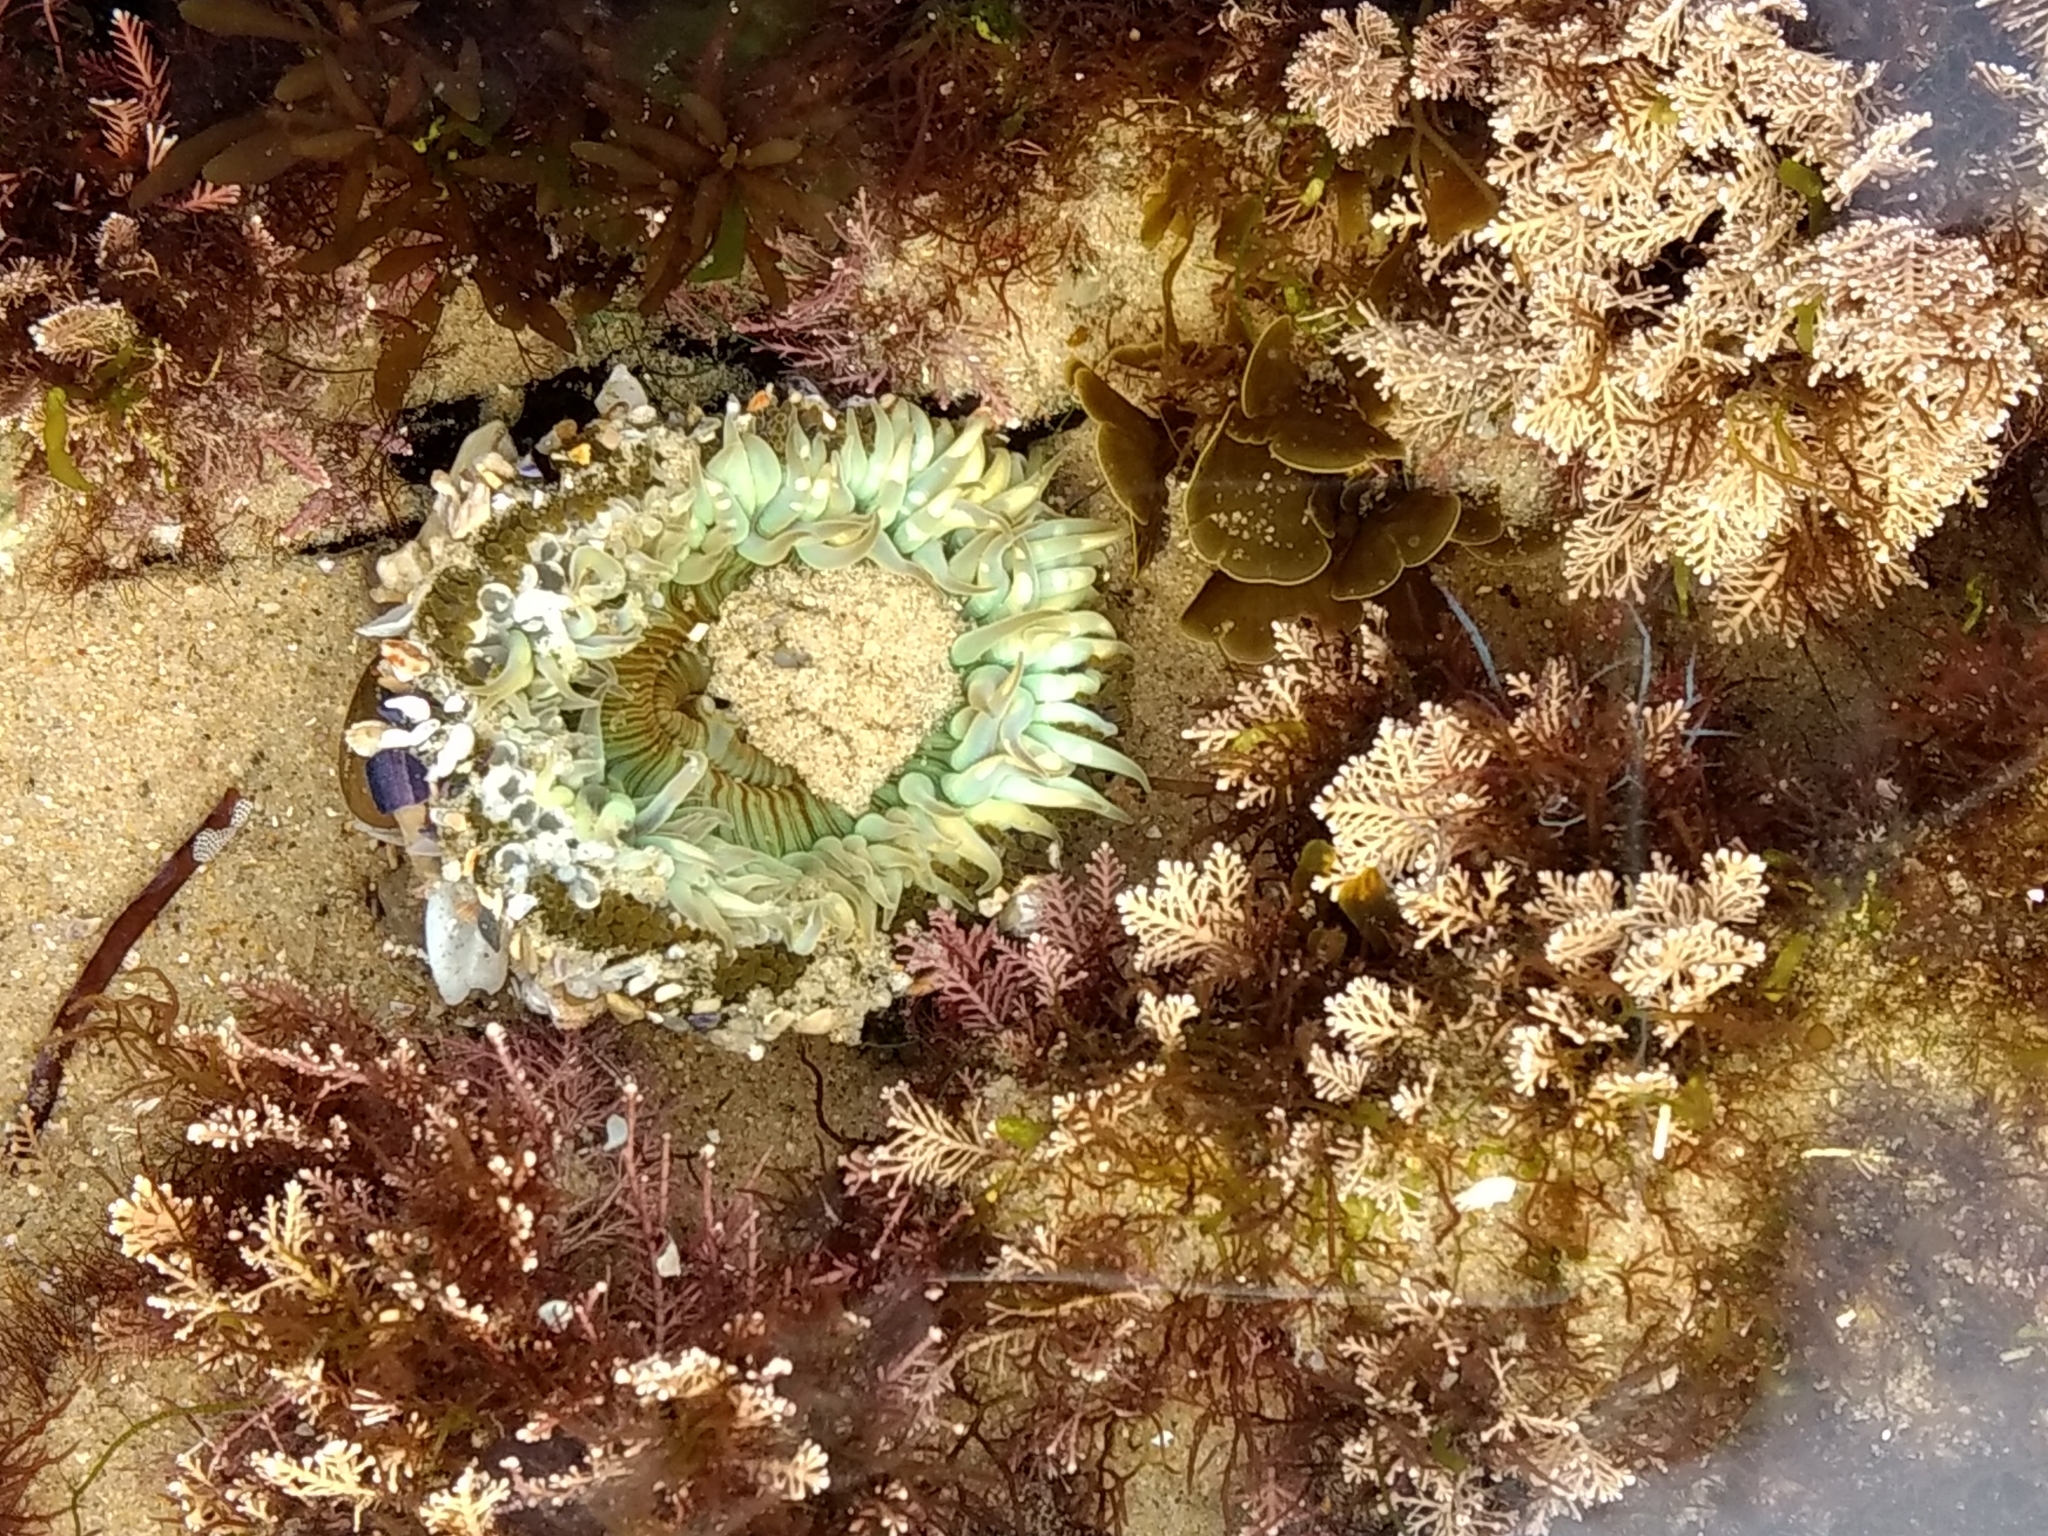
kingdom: Animalia
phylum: Cnidaria
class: Anthozoa
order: Actiniaria
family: Actiniidae
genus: Anthopleura
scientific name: Anthopleura sola
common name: Sun anemone
